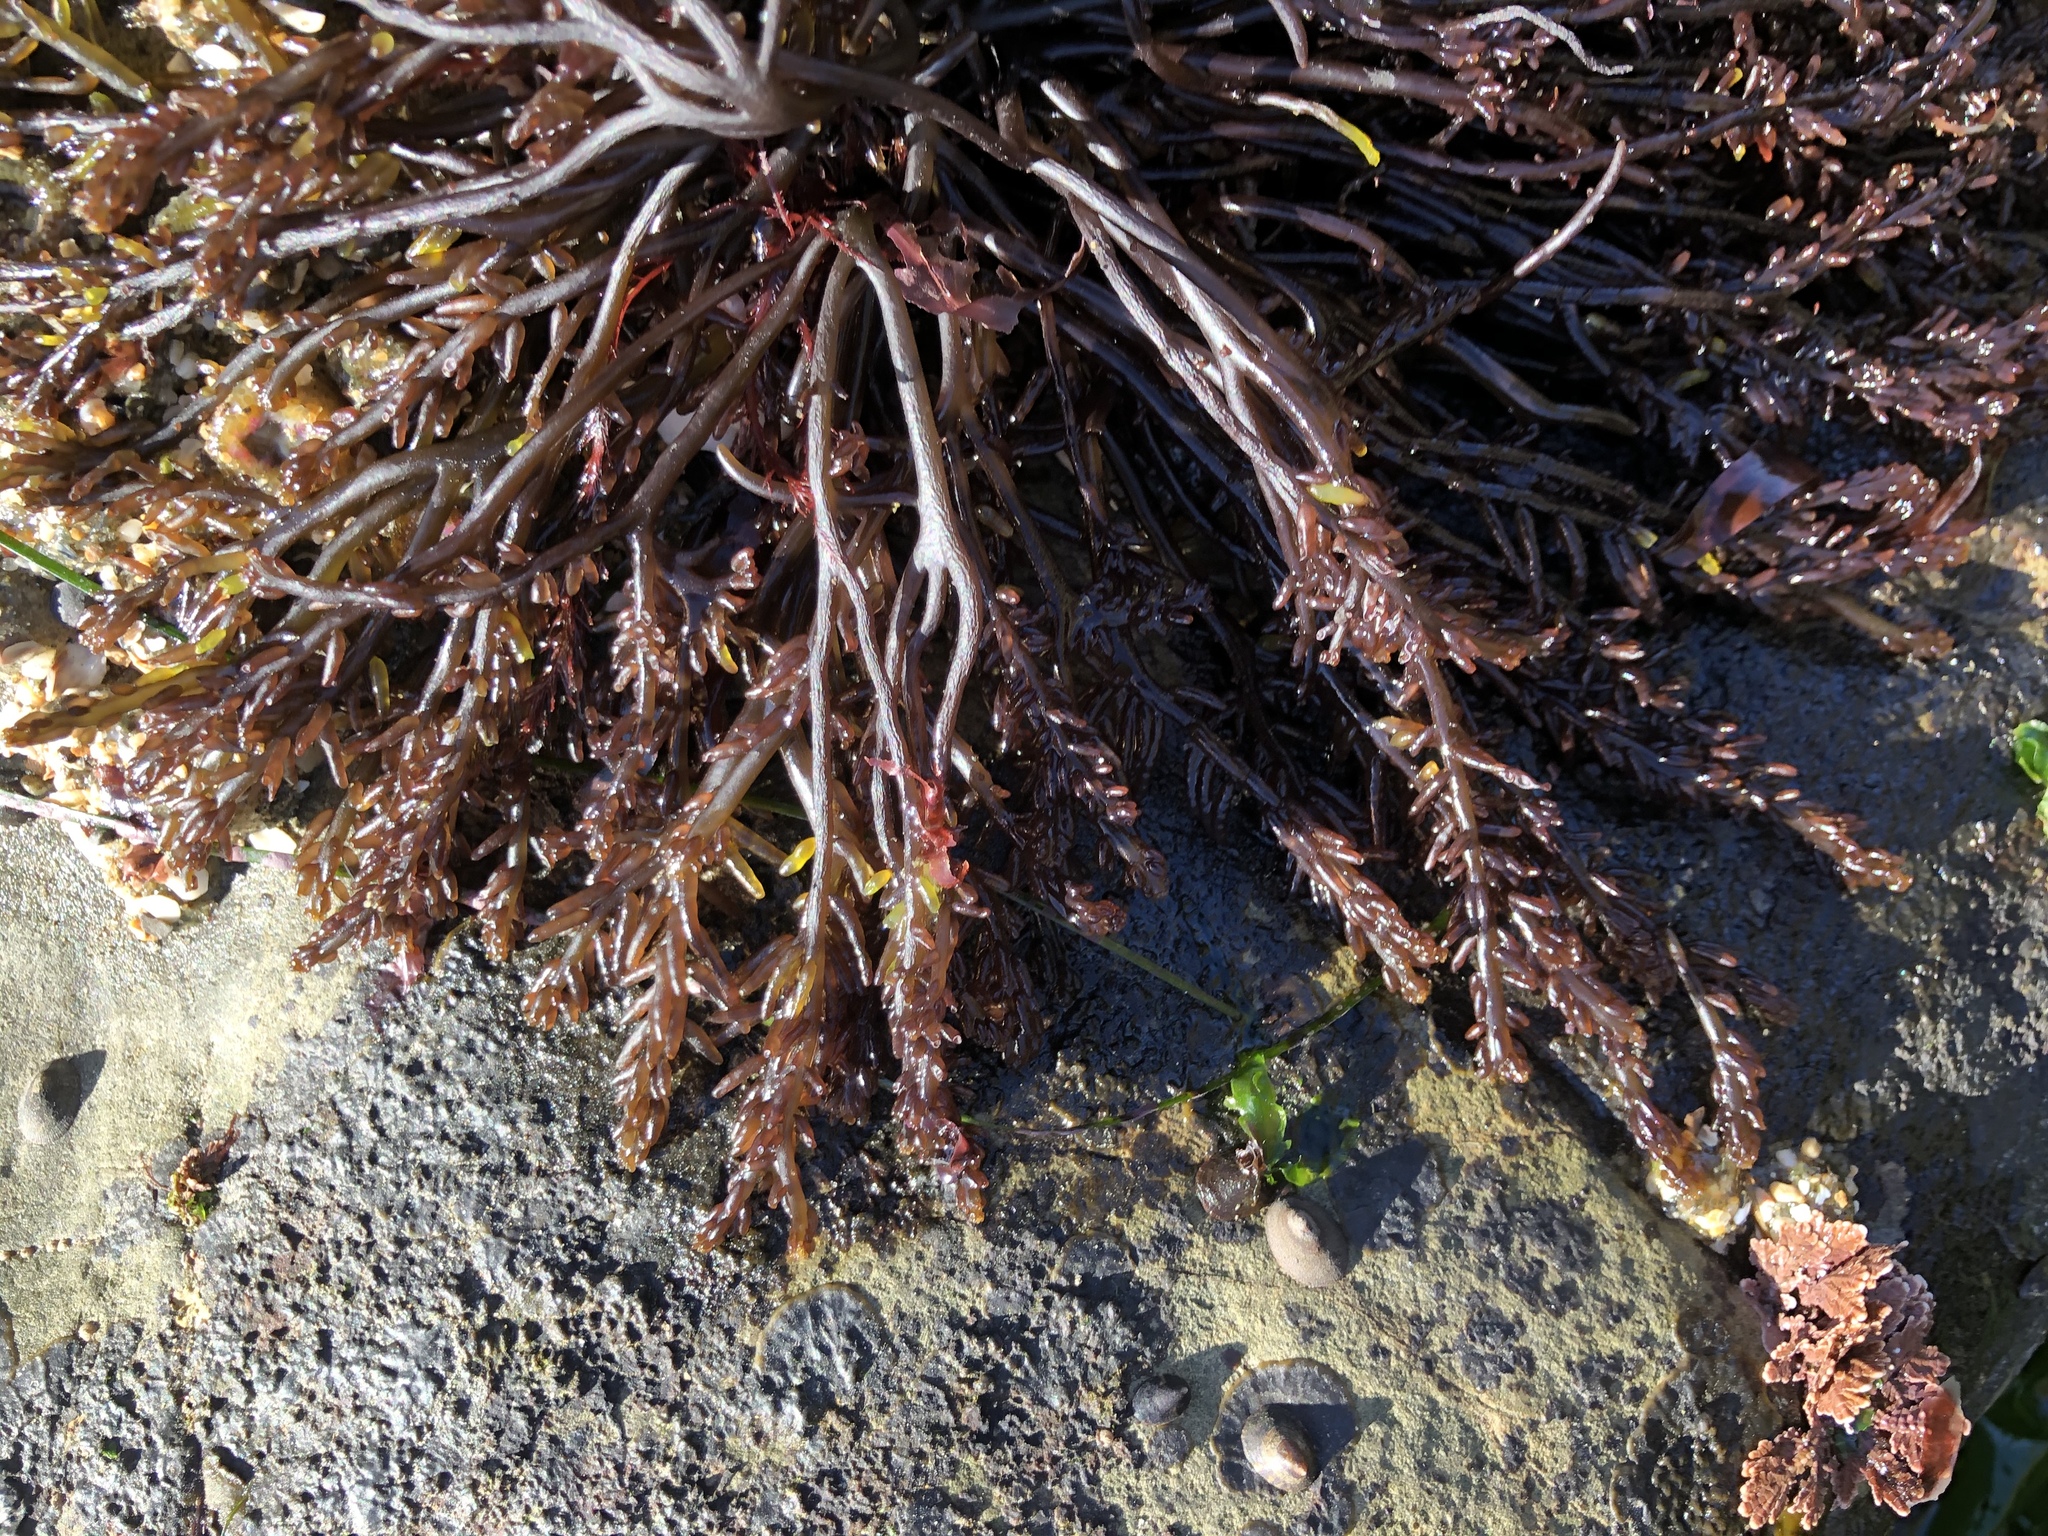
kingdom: Plantae
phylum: Rhodophyta
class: Florideophyceae
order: Rhodymeniales
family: Champiaceae
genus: Neogastroclonium
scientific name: Neogastroclonium subarticulatum
